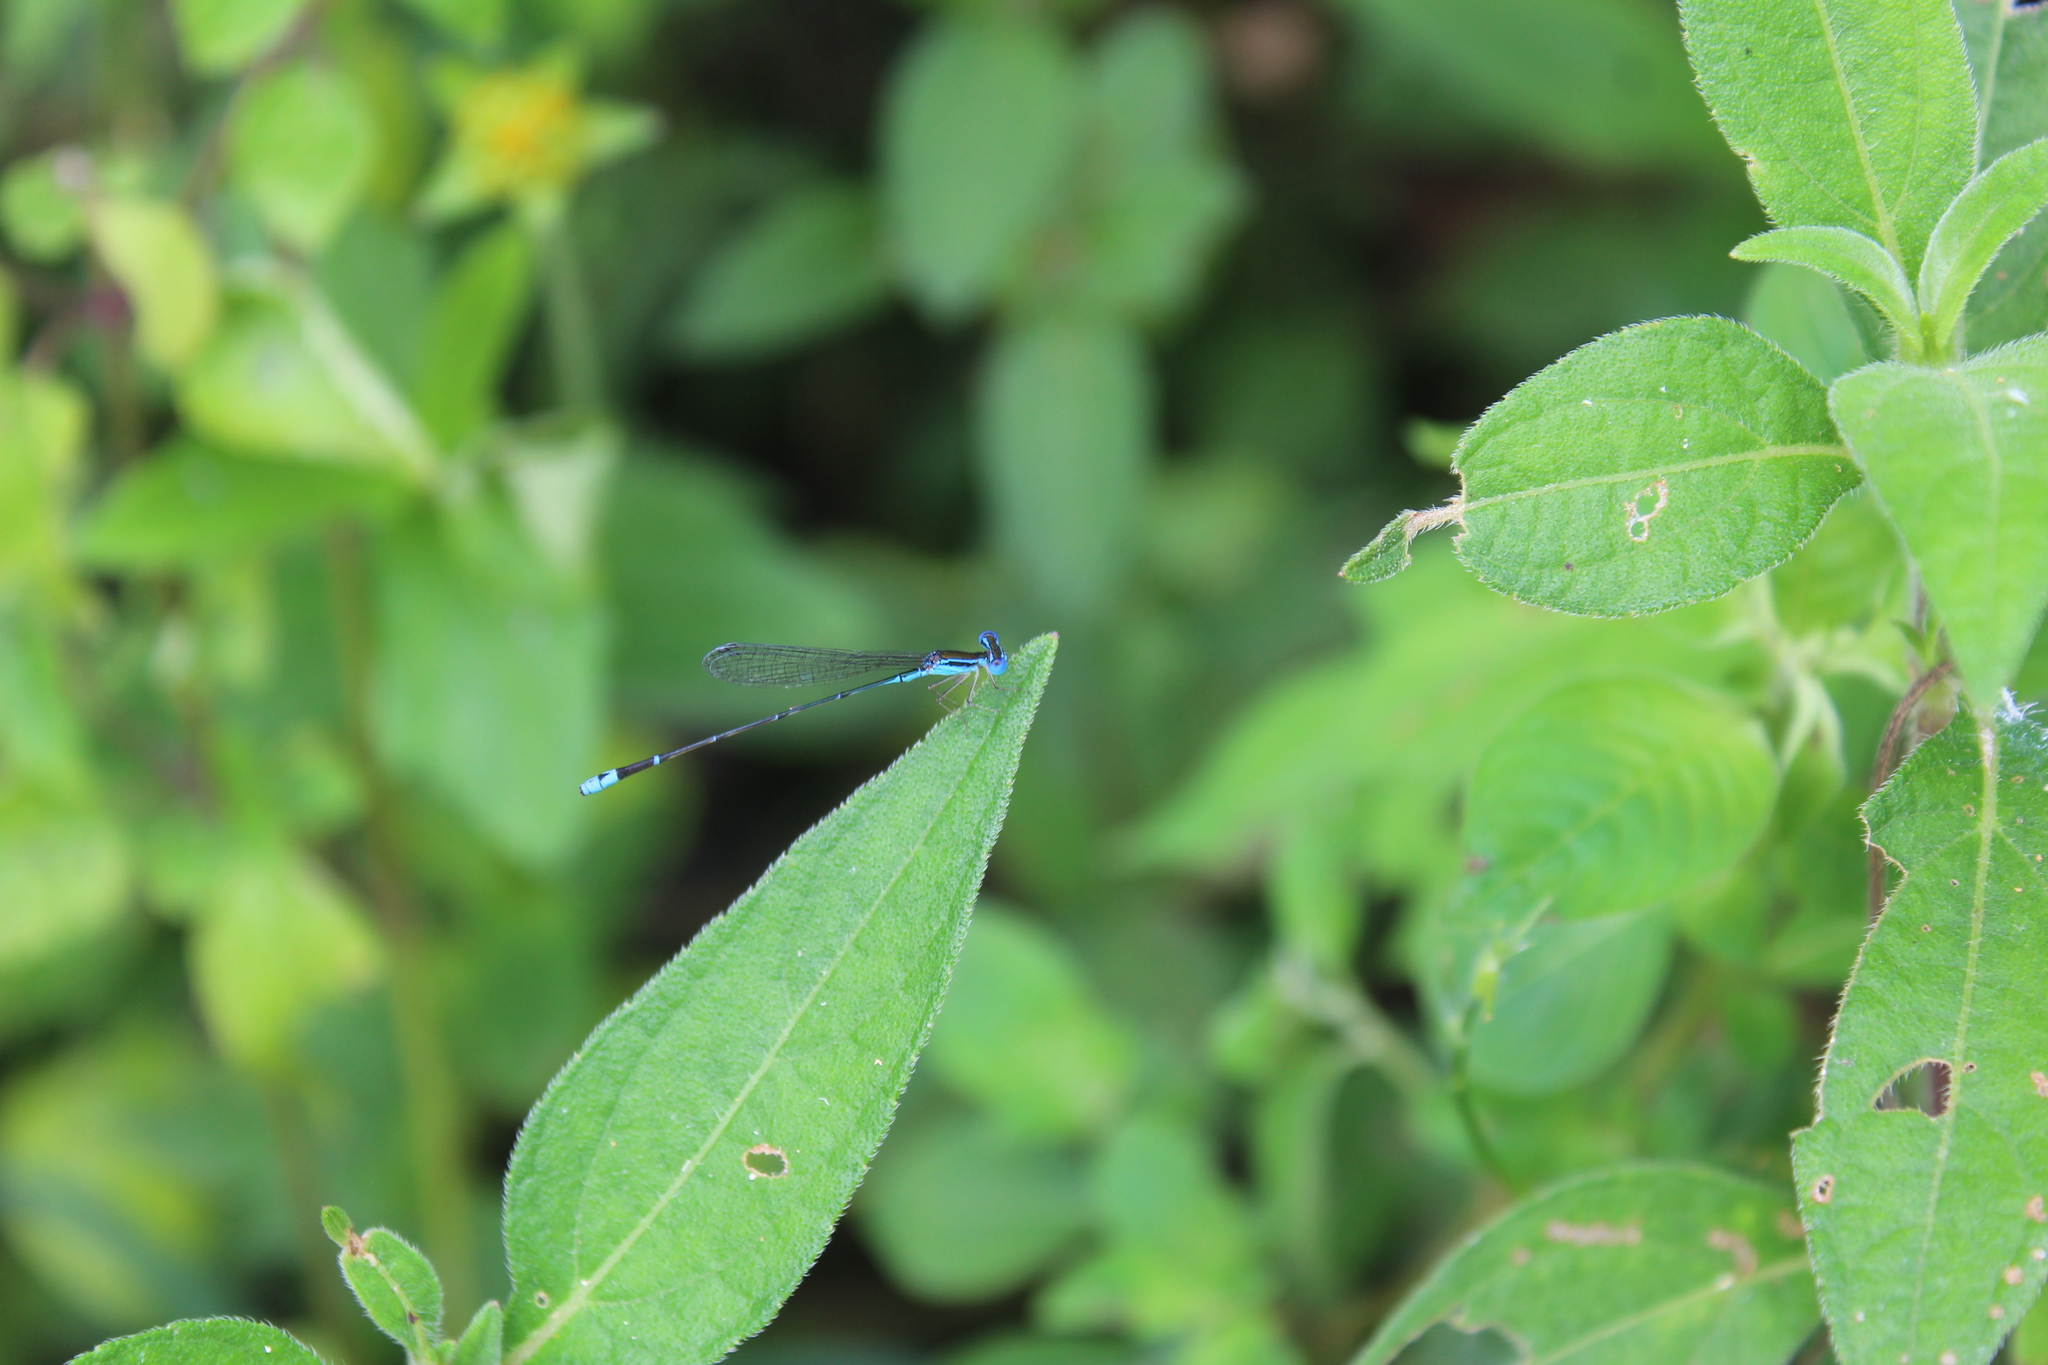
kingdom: Animalia
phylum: Arthropoda
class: Insecta
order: Odonata
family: Coenagrionidae
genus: Nehalennia
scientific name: Nehalennia minuta
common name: Tropical sprite
